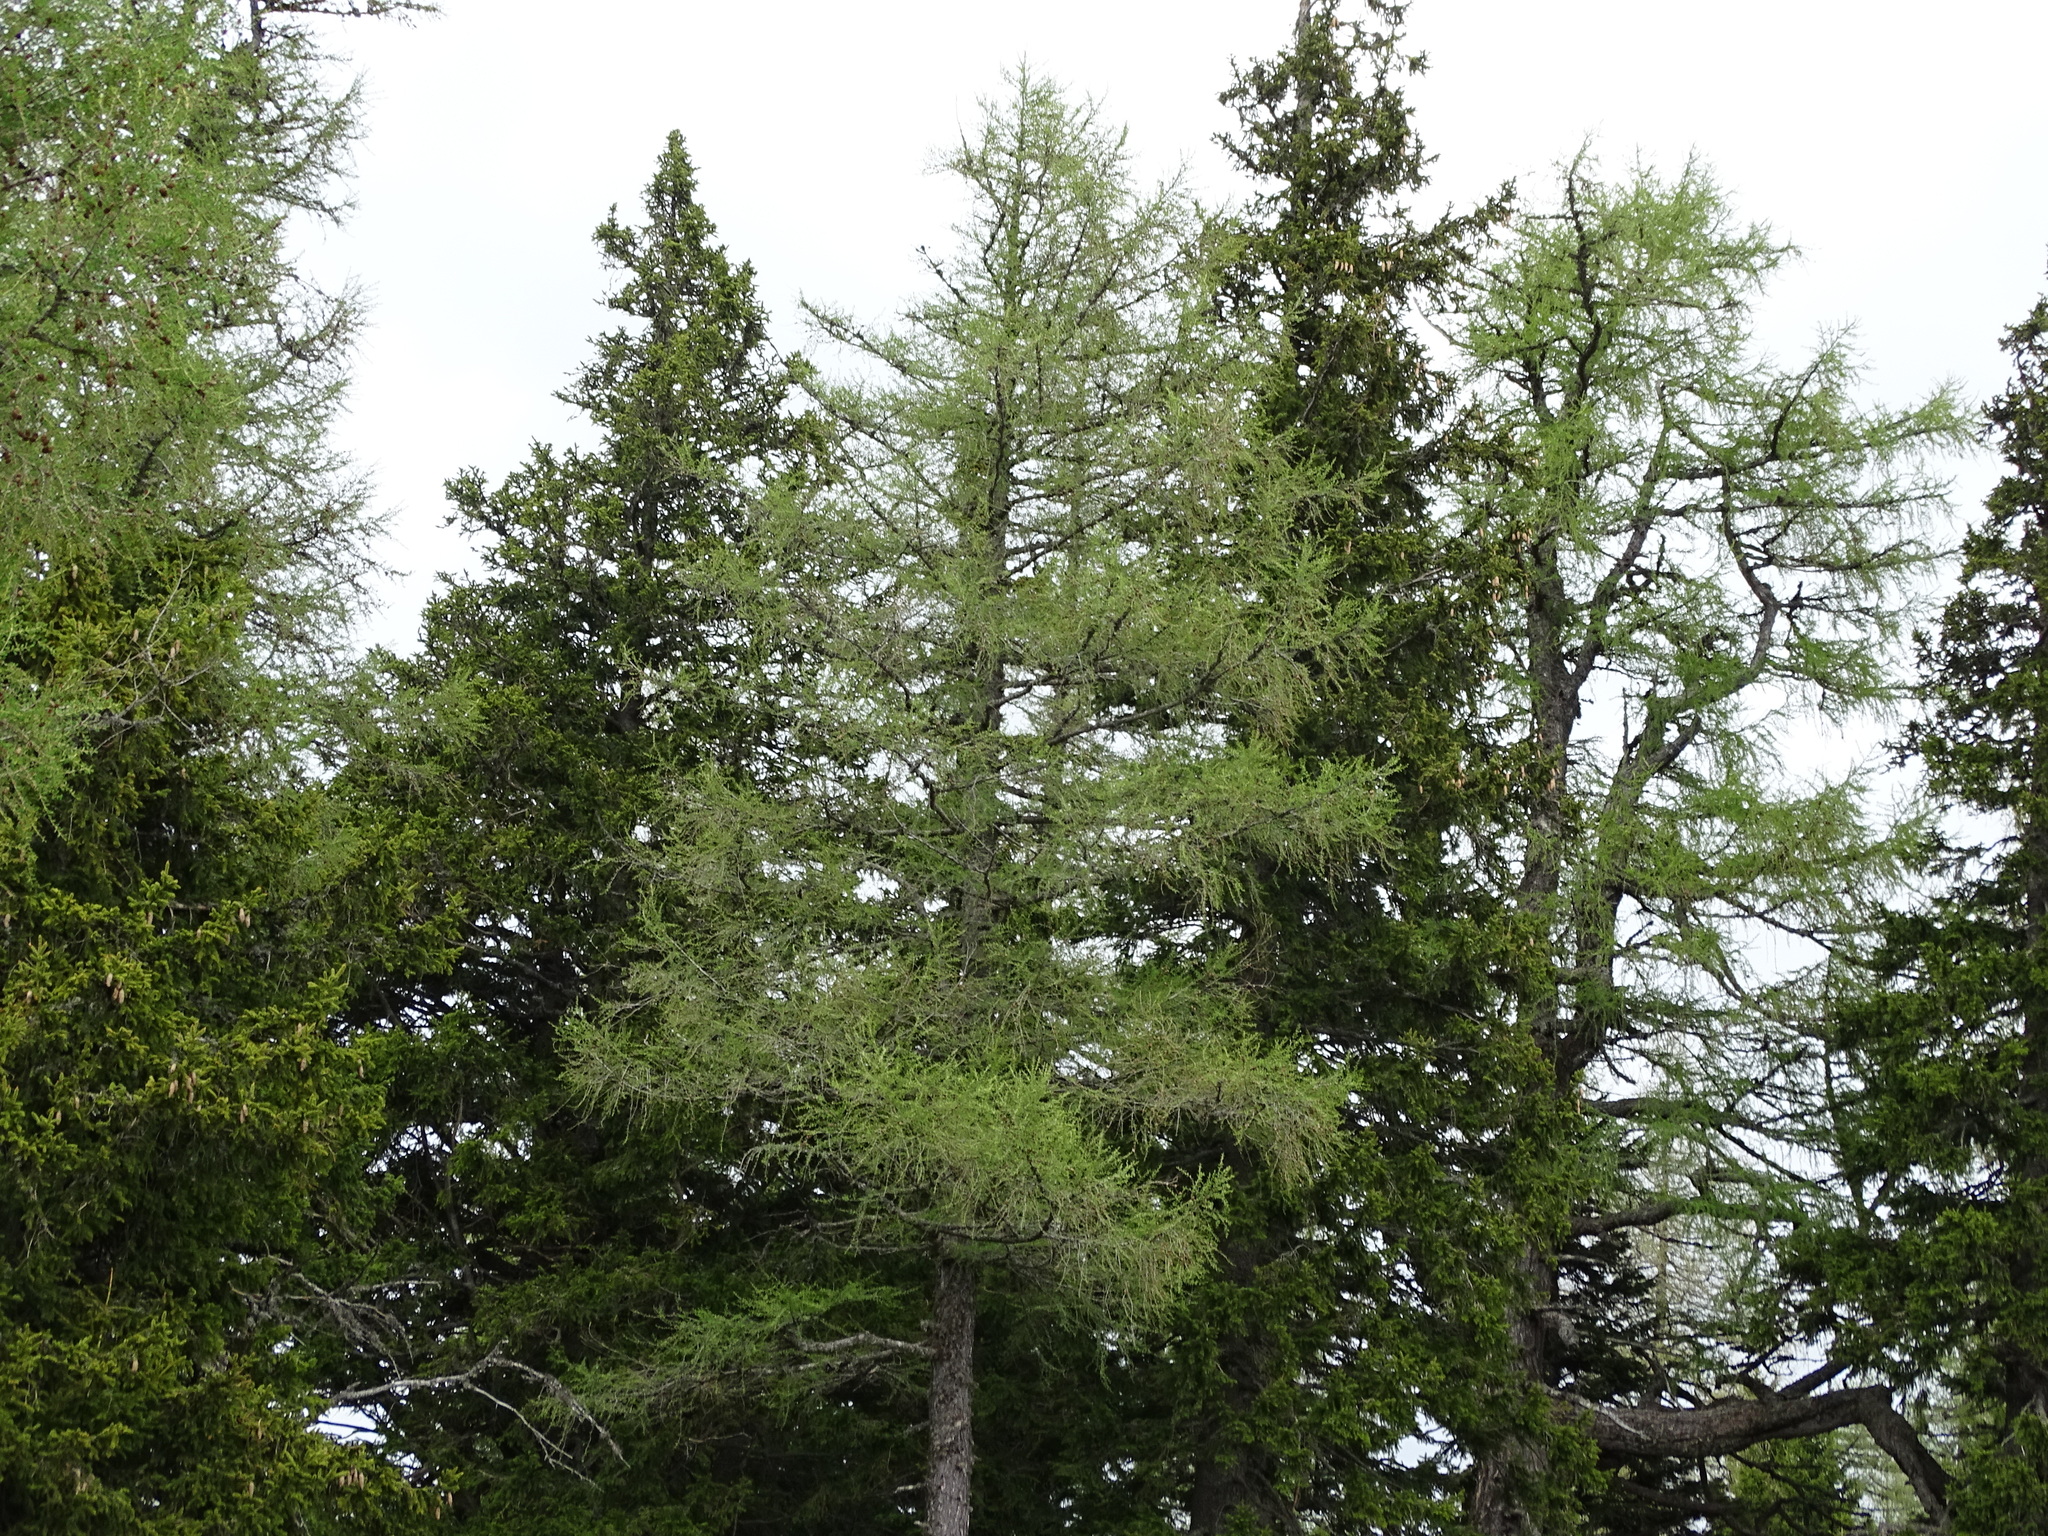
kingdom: Plantae
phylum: Tracheophyta
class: Pinopsida
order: Pinales
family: Pinaceae
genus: Larix
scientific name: Larix decidua
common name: European larch
